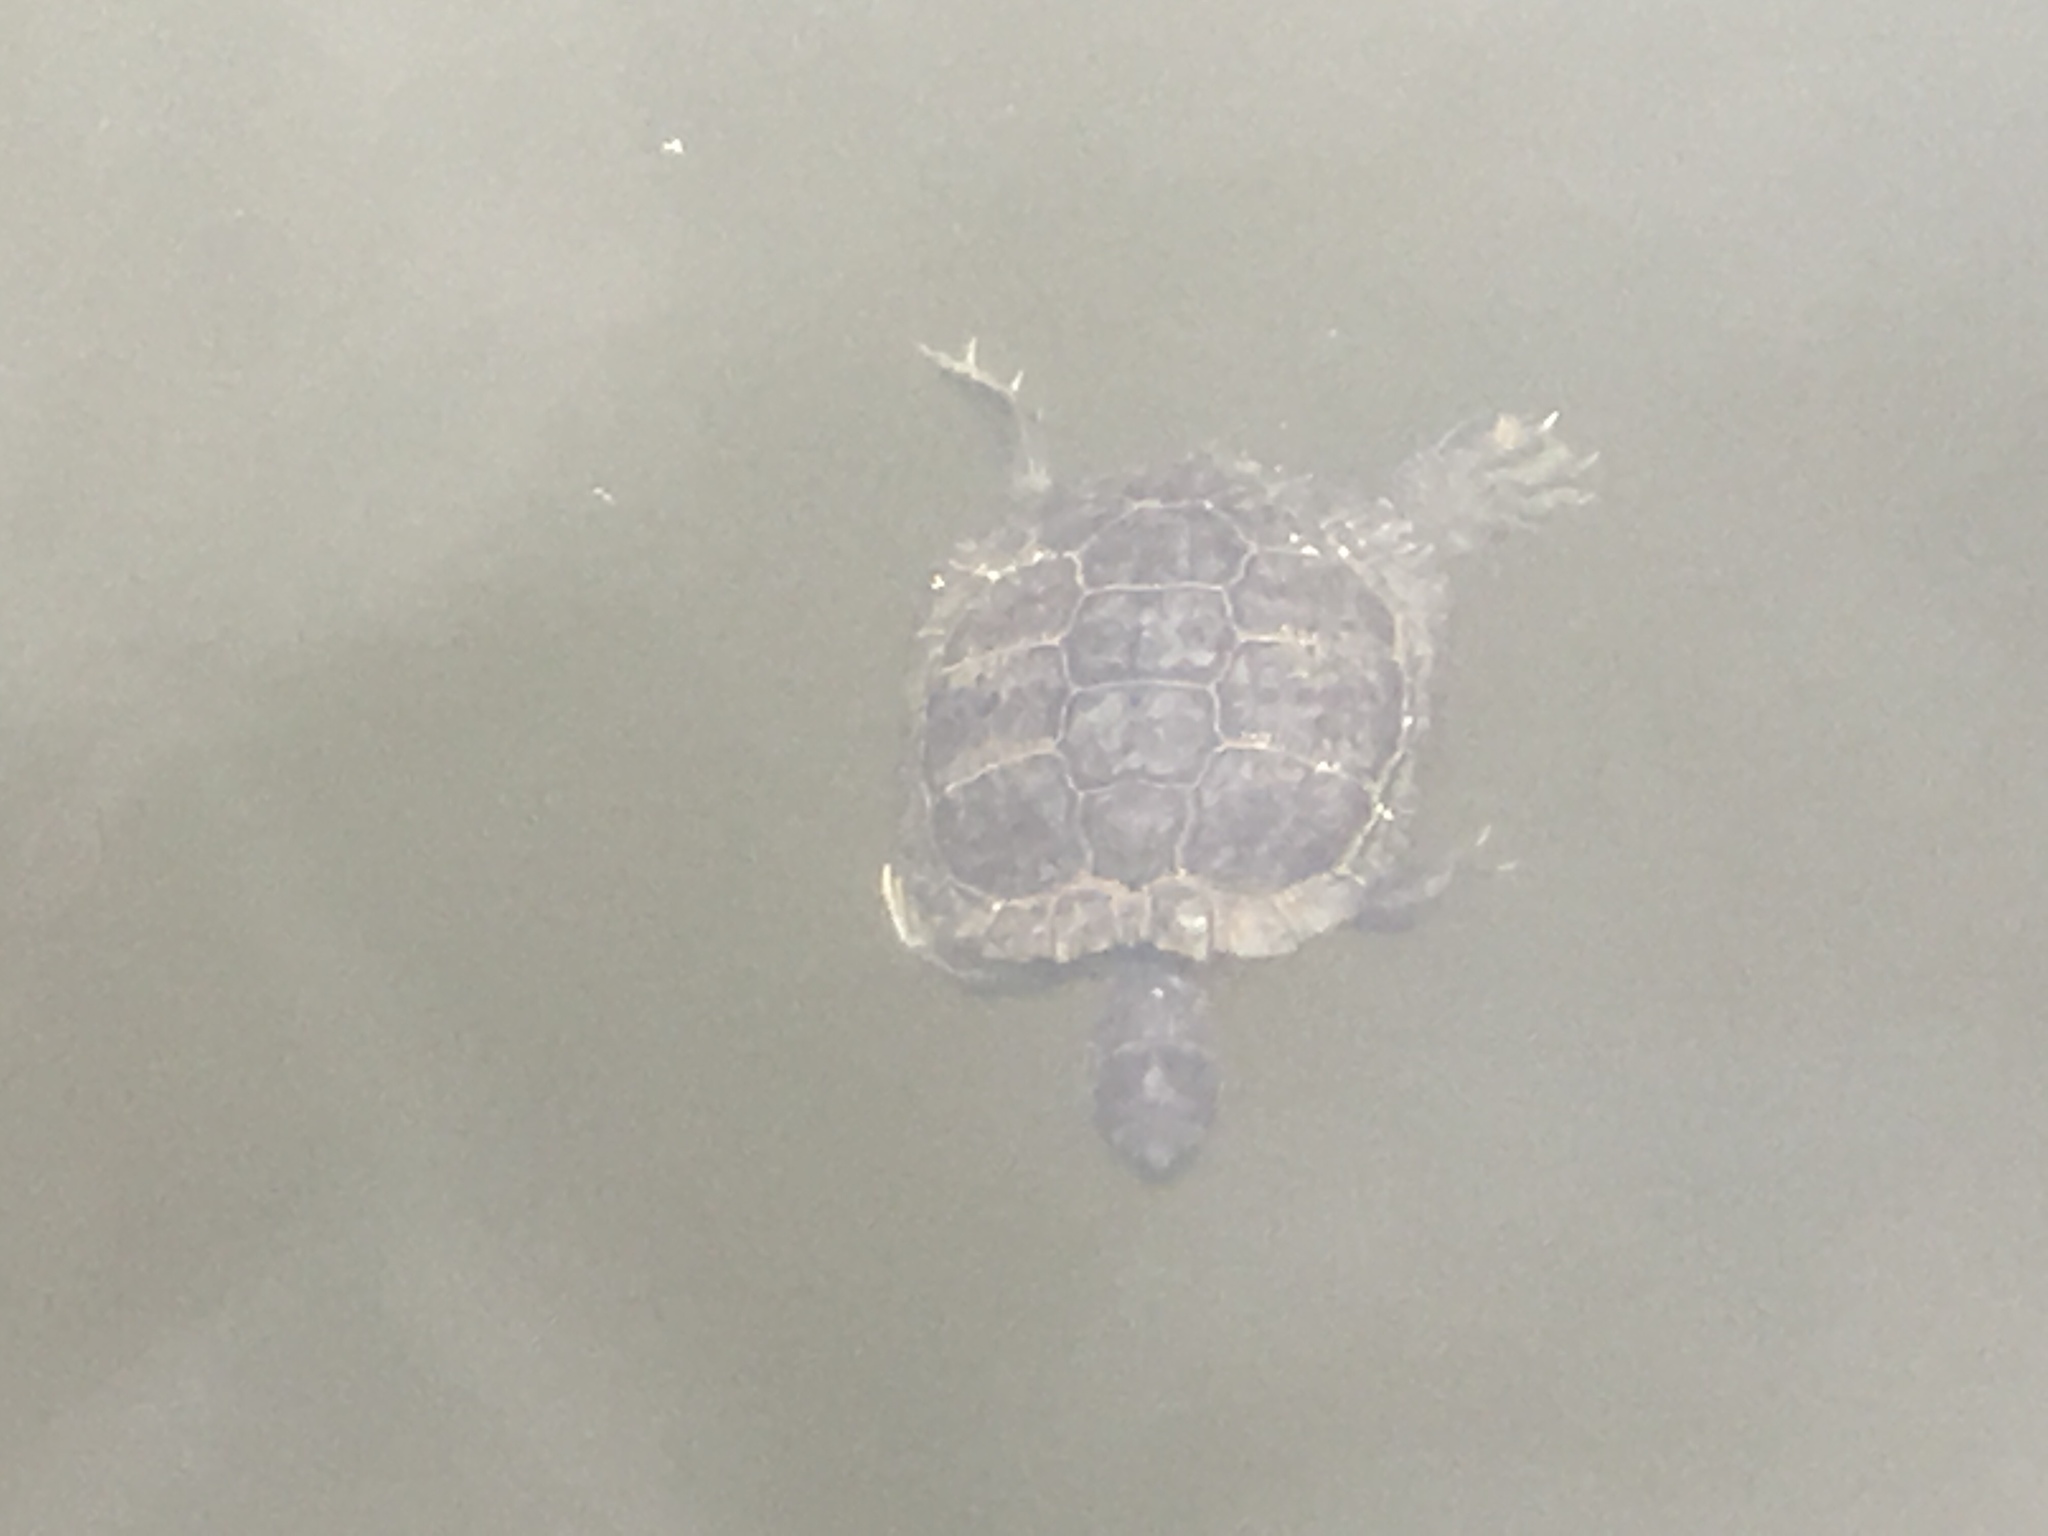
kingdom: Animalia
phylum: Chordata
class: Testudines
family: Emydidae
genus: Trachemys
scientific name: Trachemys scripta
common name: Slider
